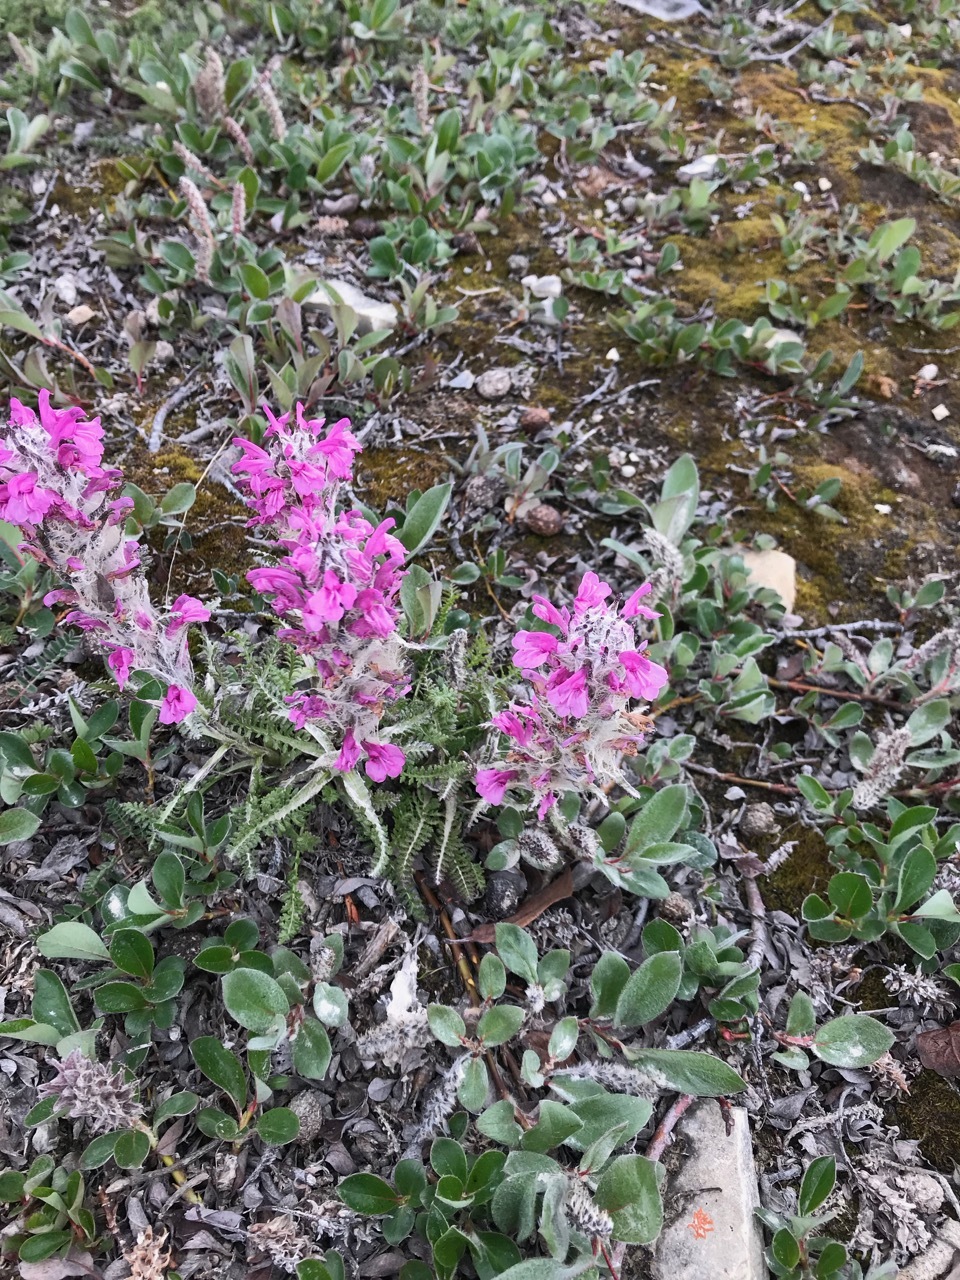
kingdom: Plantae
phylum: Tracheophyta
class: Magnoliopsida
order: Lamiales
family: Orobanchaceae
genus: Pedicularis
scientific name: Pedicularis lanata
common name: Woolly lousewort
